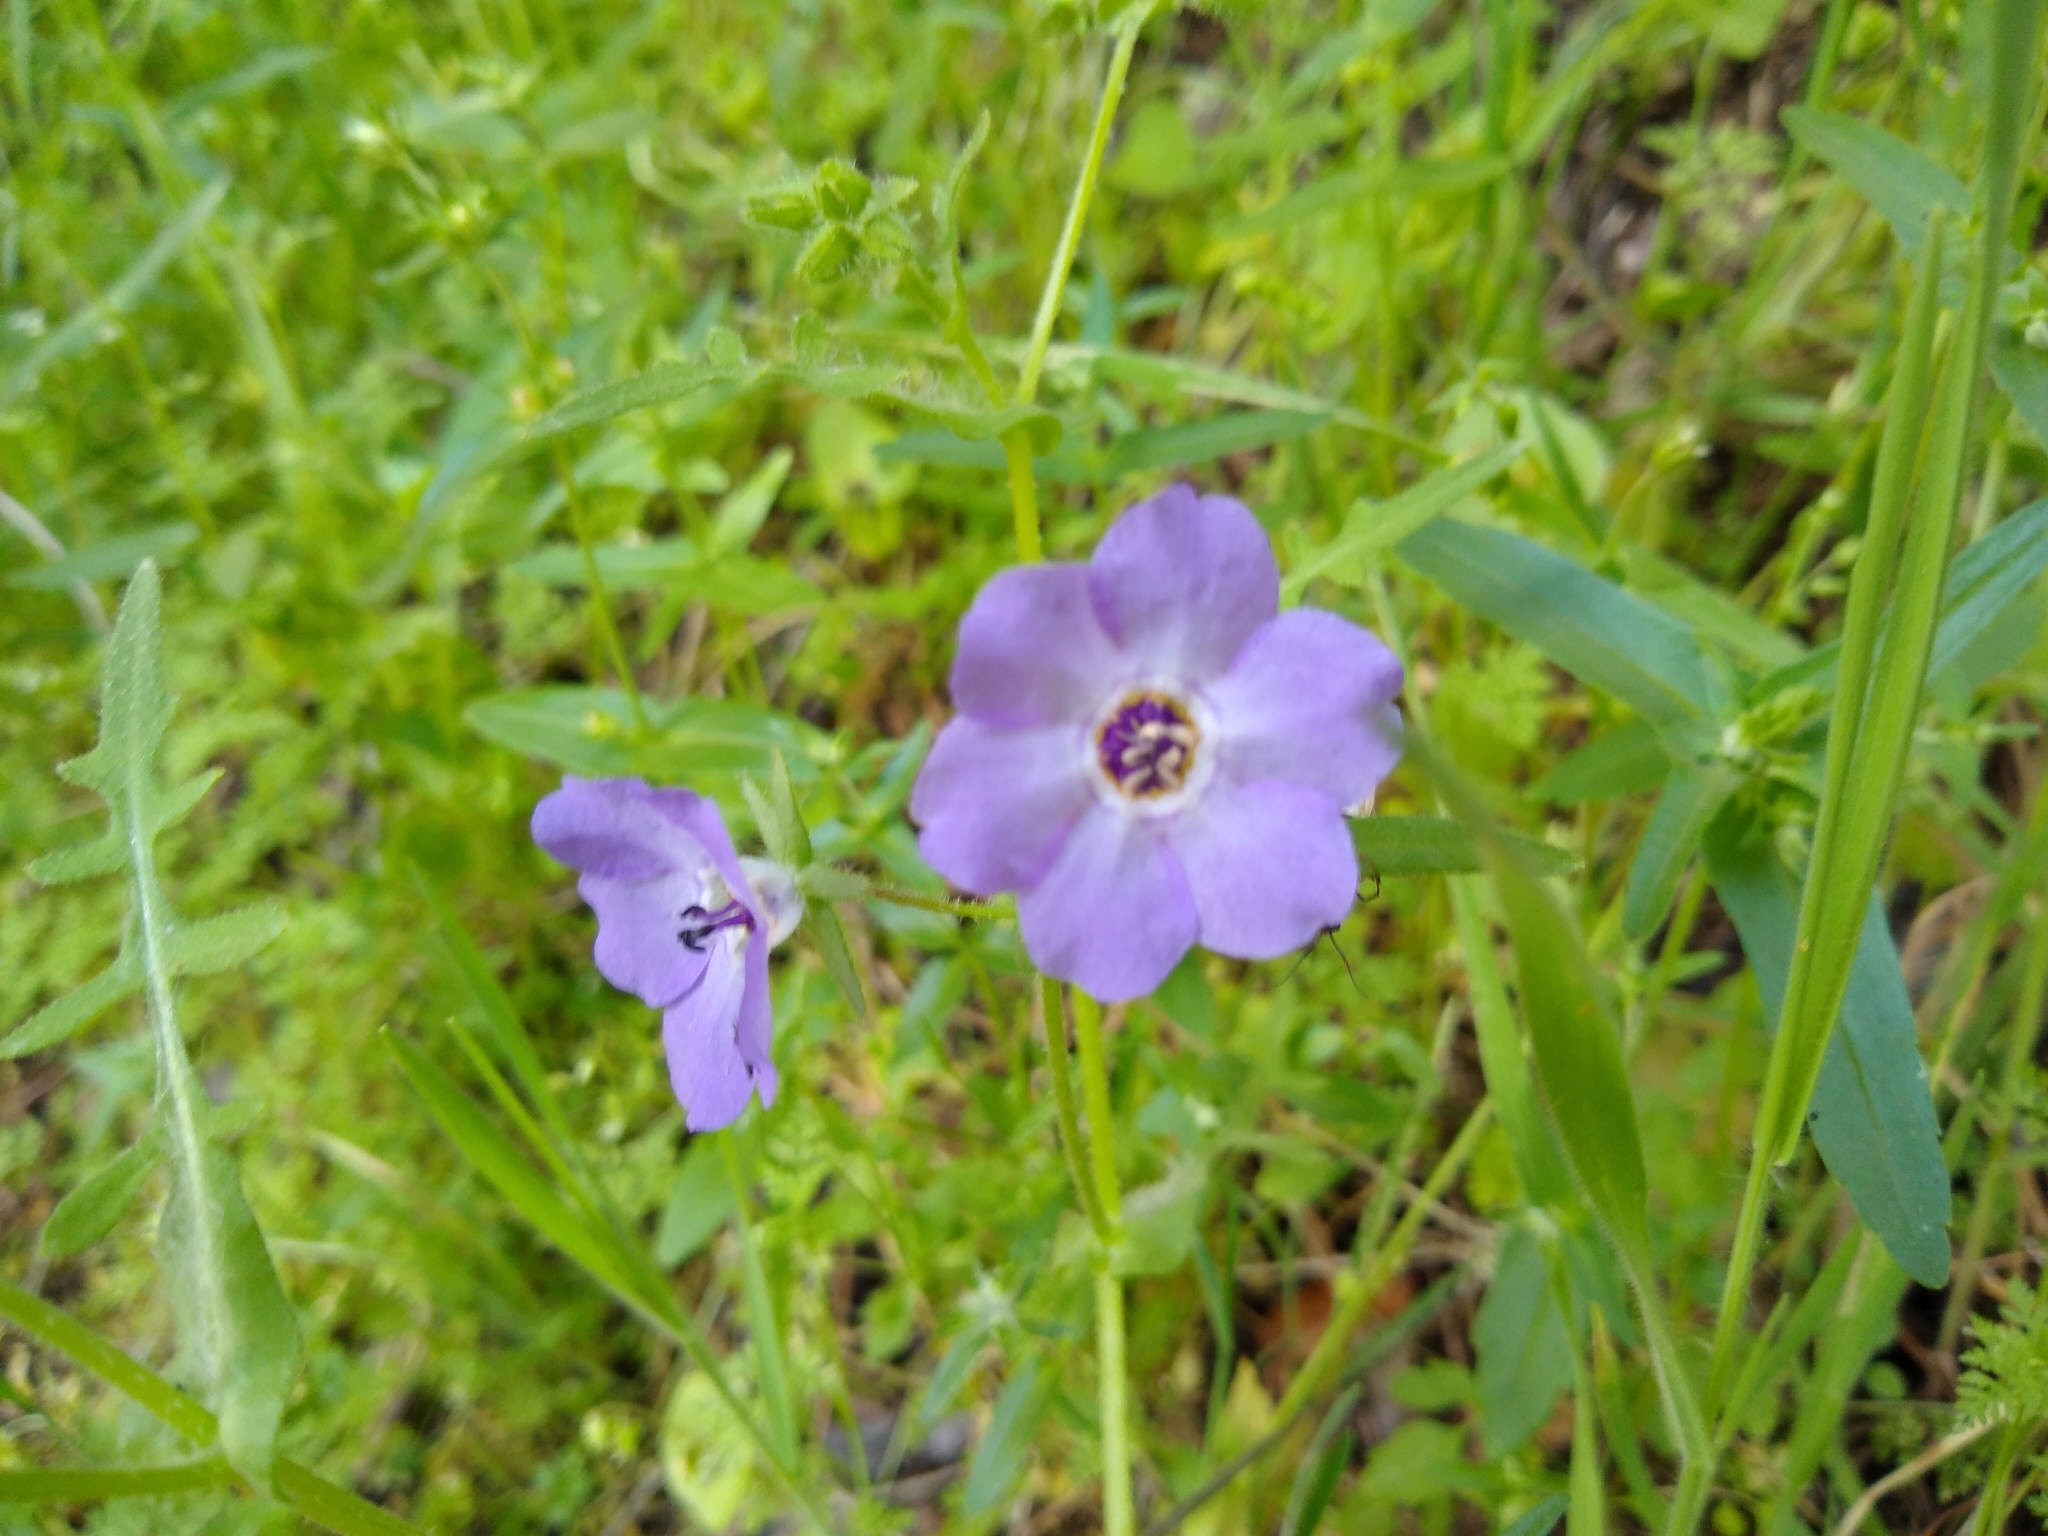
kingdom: Plantae
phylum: Tracheophyta
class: Magnoliopsida
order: Boraginales
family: Hydrophyllaceae
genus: Pholistoma
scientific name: Pholistoma auritum
